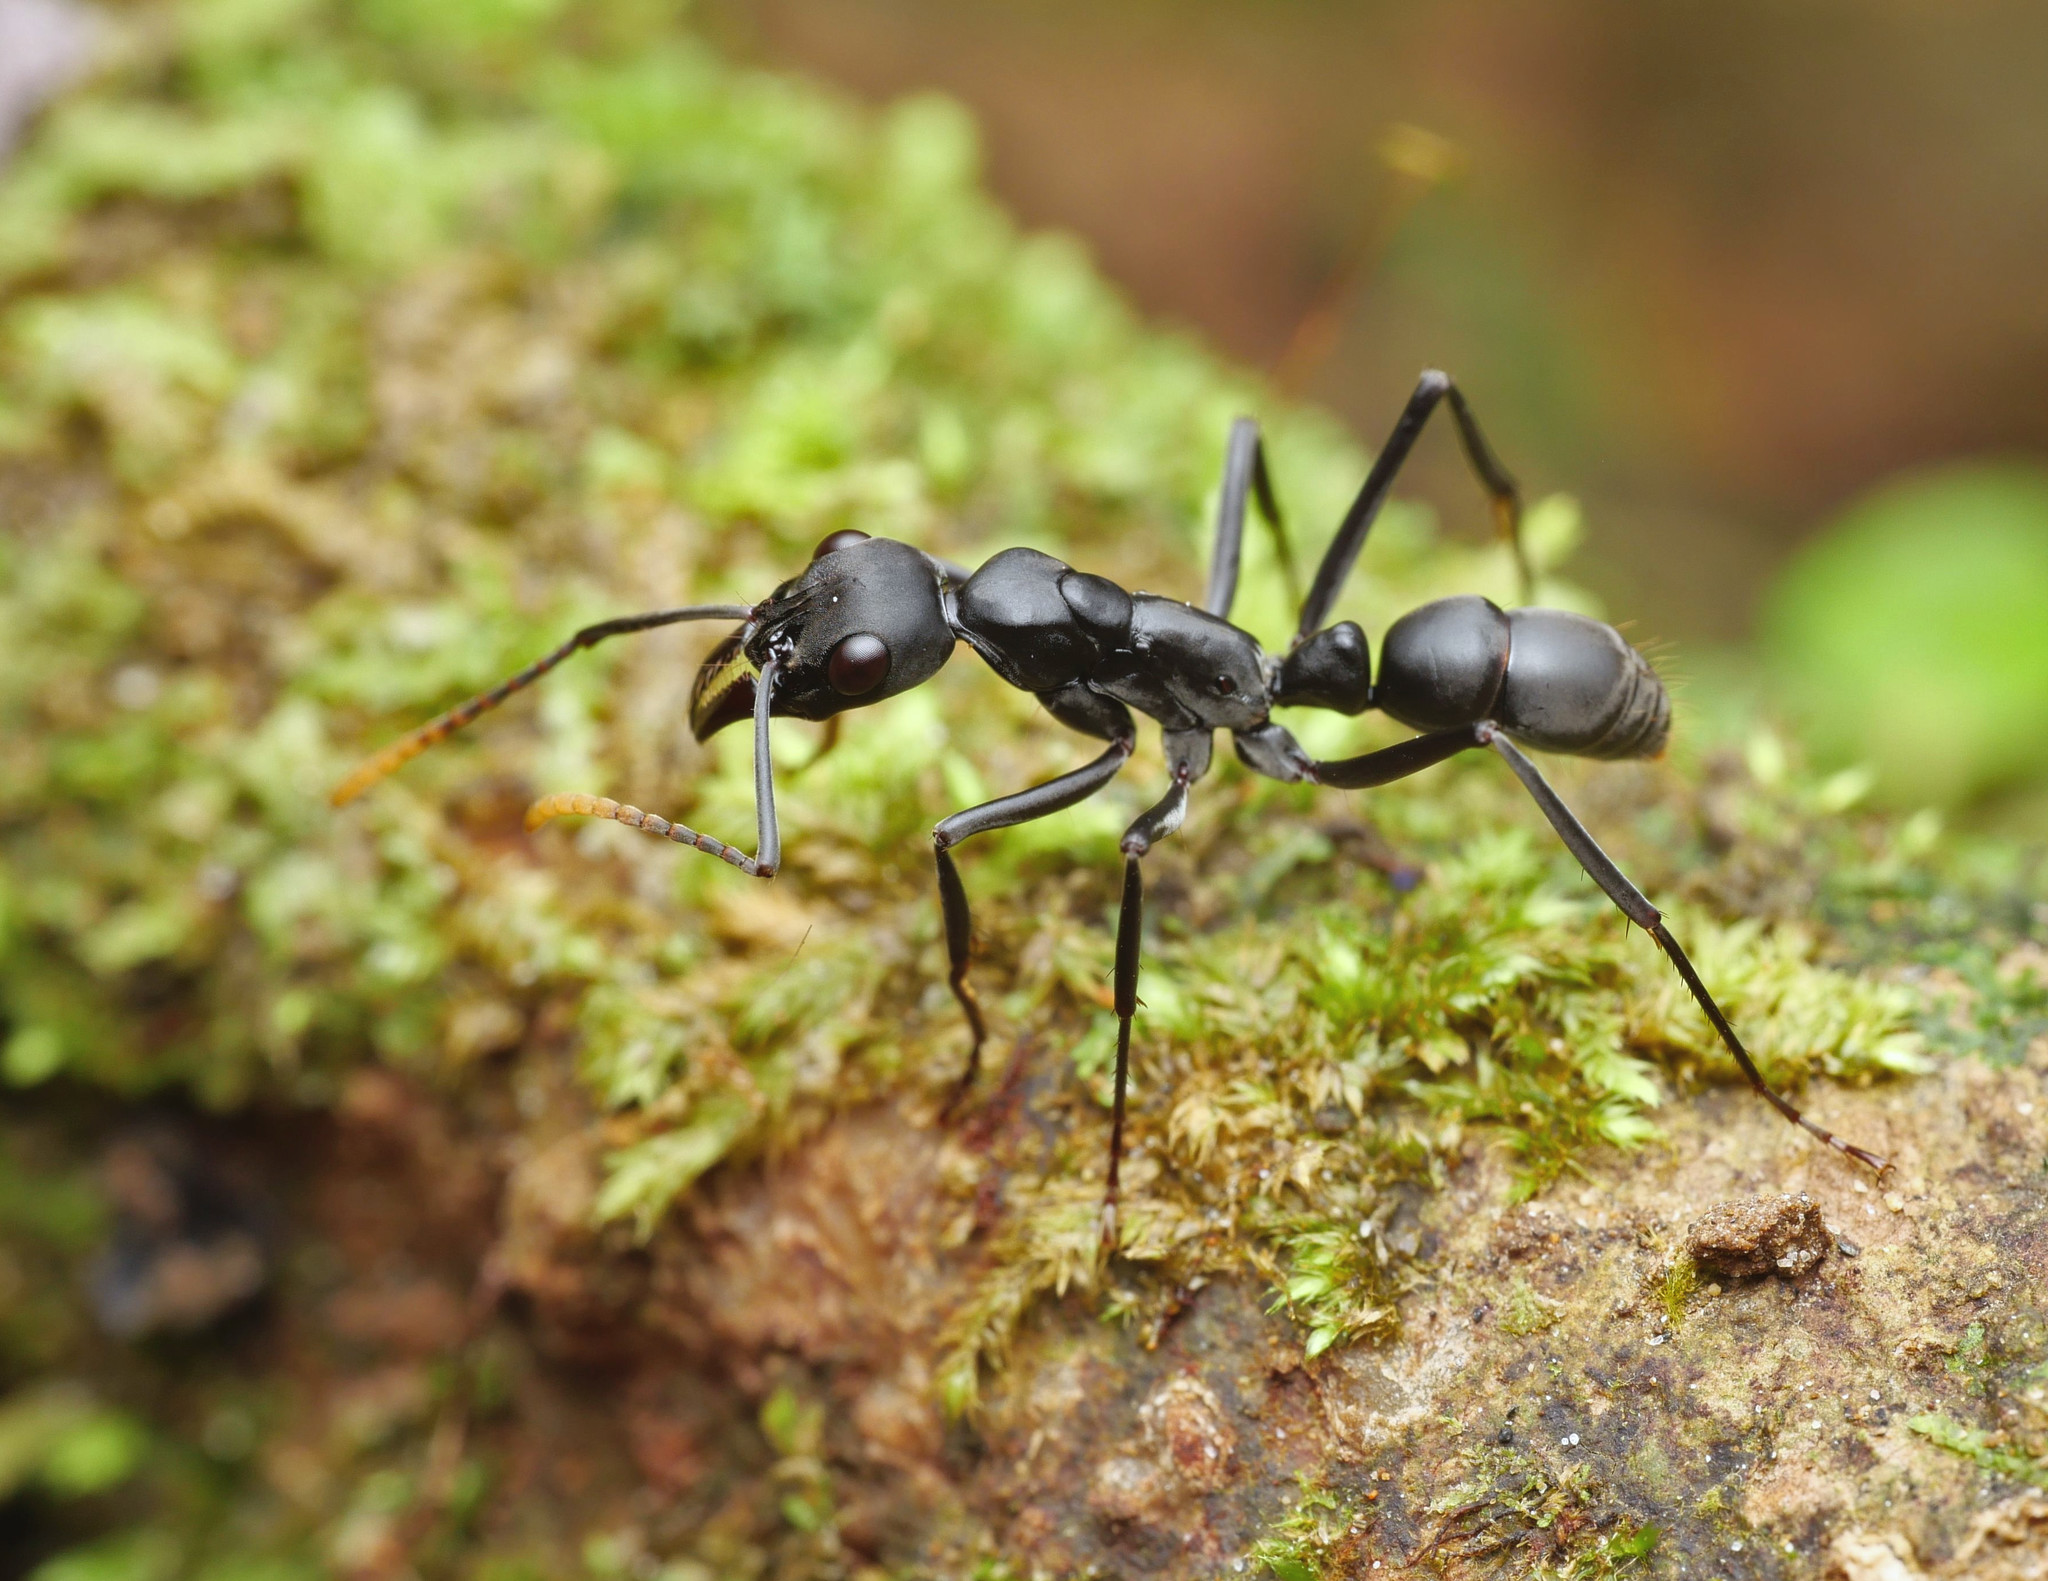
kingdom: Animalia
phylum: Arthropoda
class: Insecta
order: Hymenoptera
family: Formicidae
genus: Pachycondyla
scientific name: Pachycondyla apicalis
